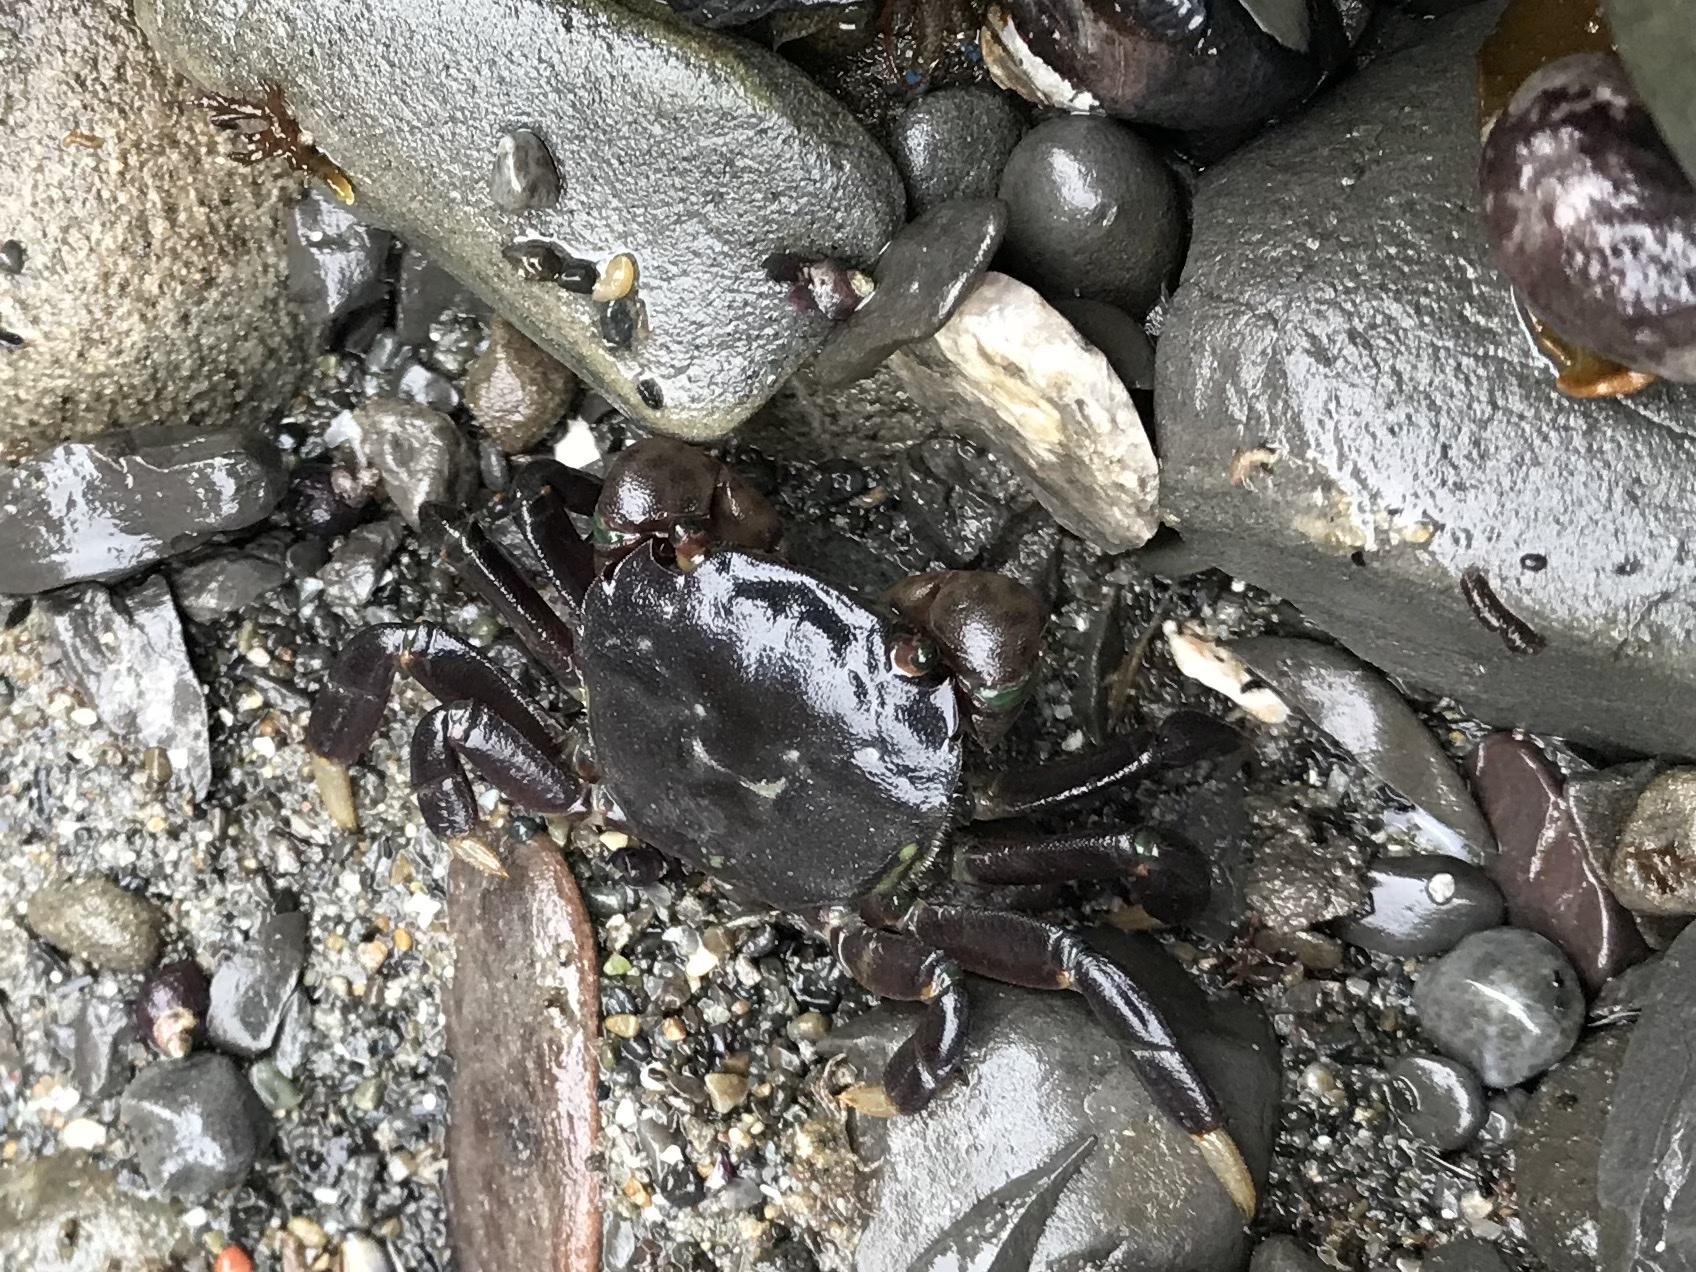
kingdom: Animalia
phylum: Arthropoda
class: Malacostraca
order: Decapoda
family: Varunidae
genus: Hemigrapsus
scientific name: Hemigrapsus nudus
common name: Purple shore crab
